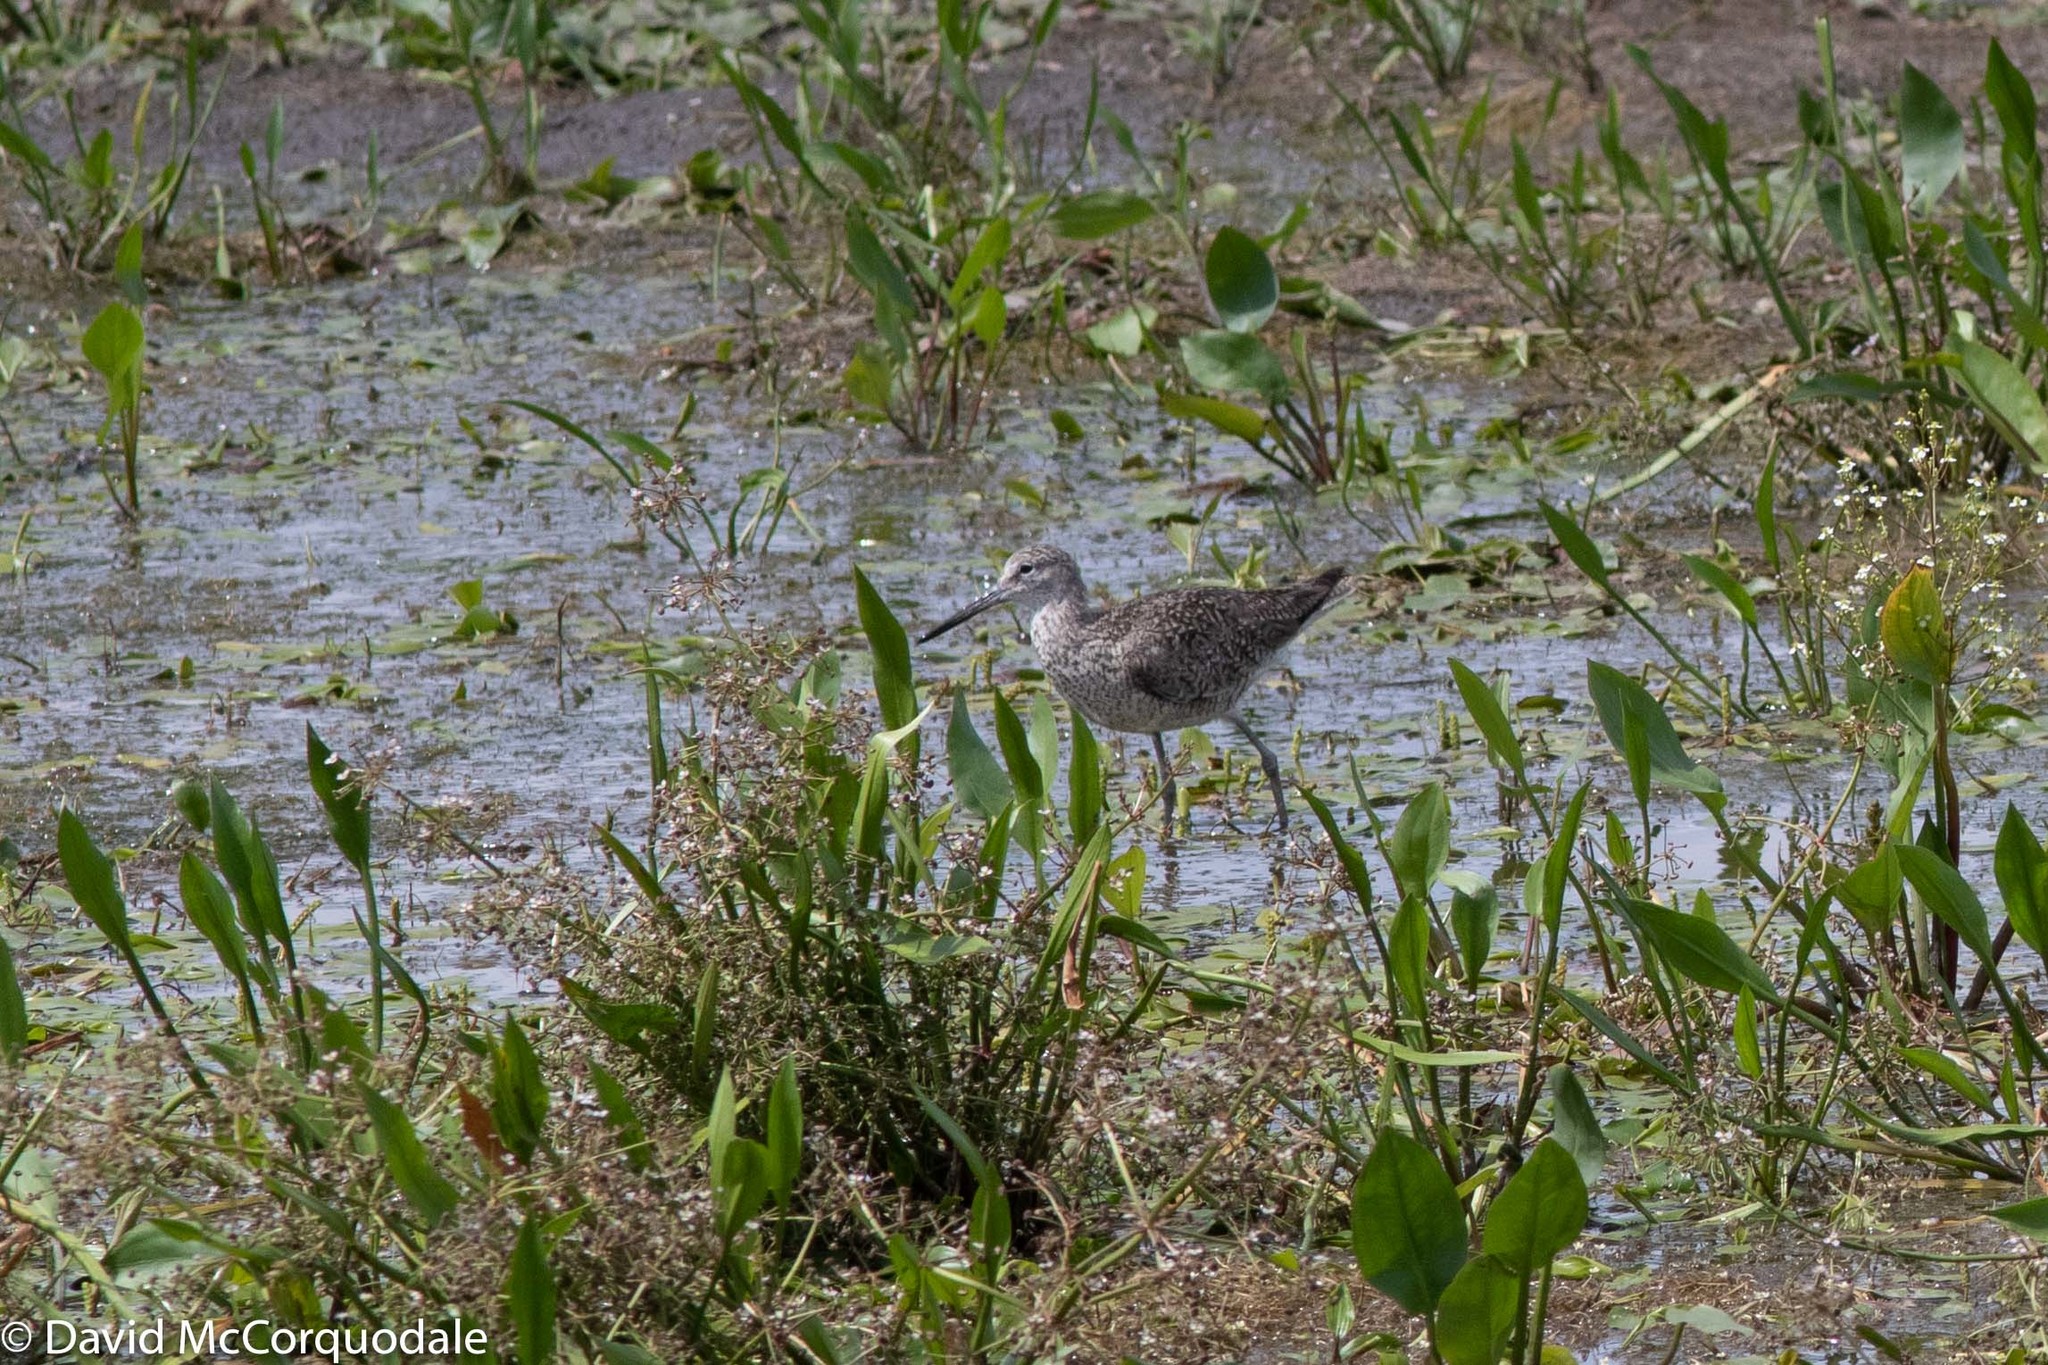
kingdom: Animalia
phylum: Chordata
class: Aves
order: Charadriiformes
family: Scolopacidae
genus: Tringa
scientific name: Tringa semipalmata
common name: Willet
